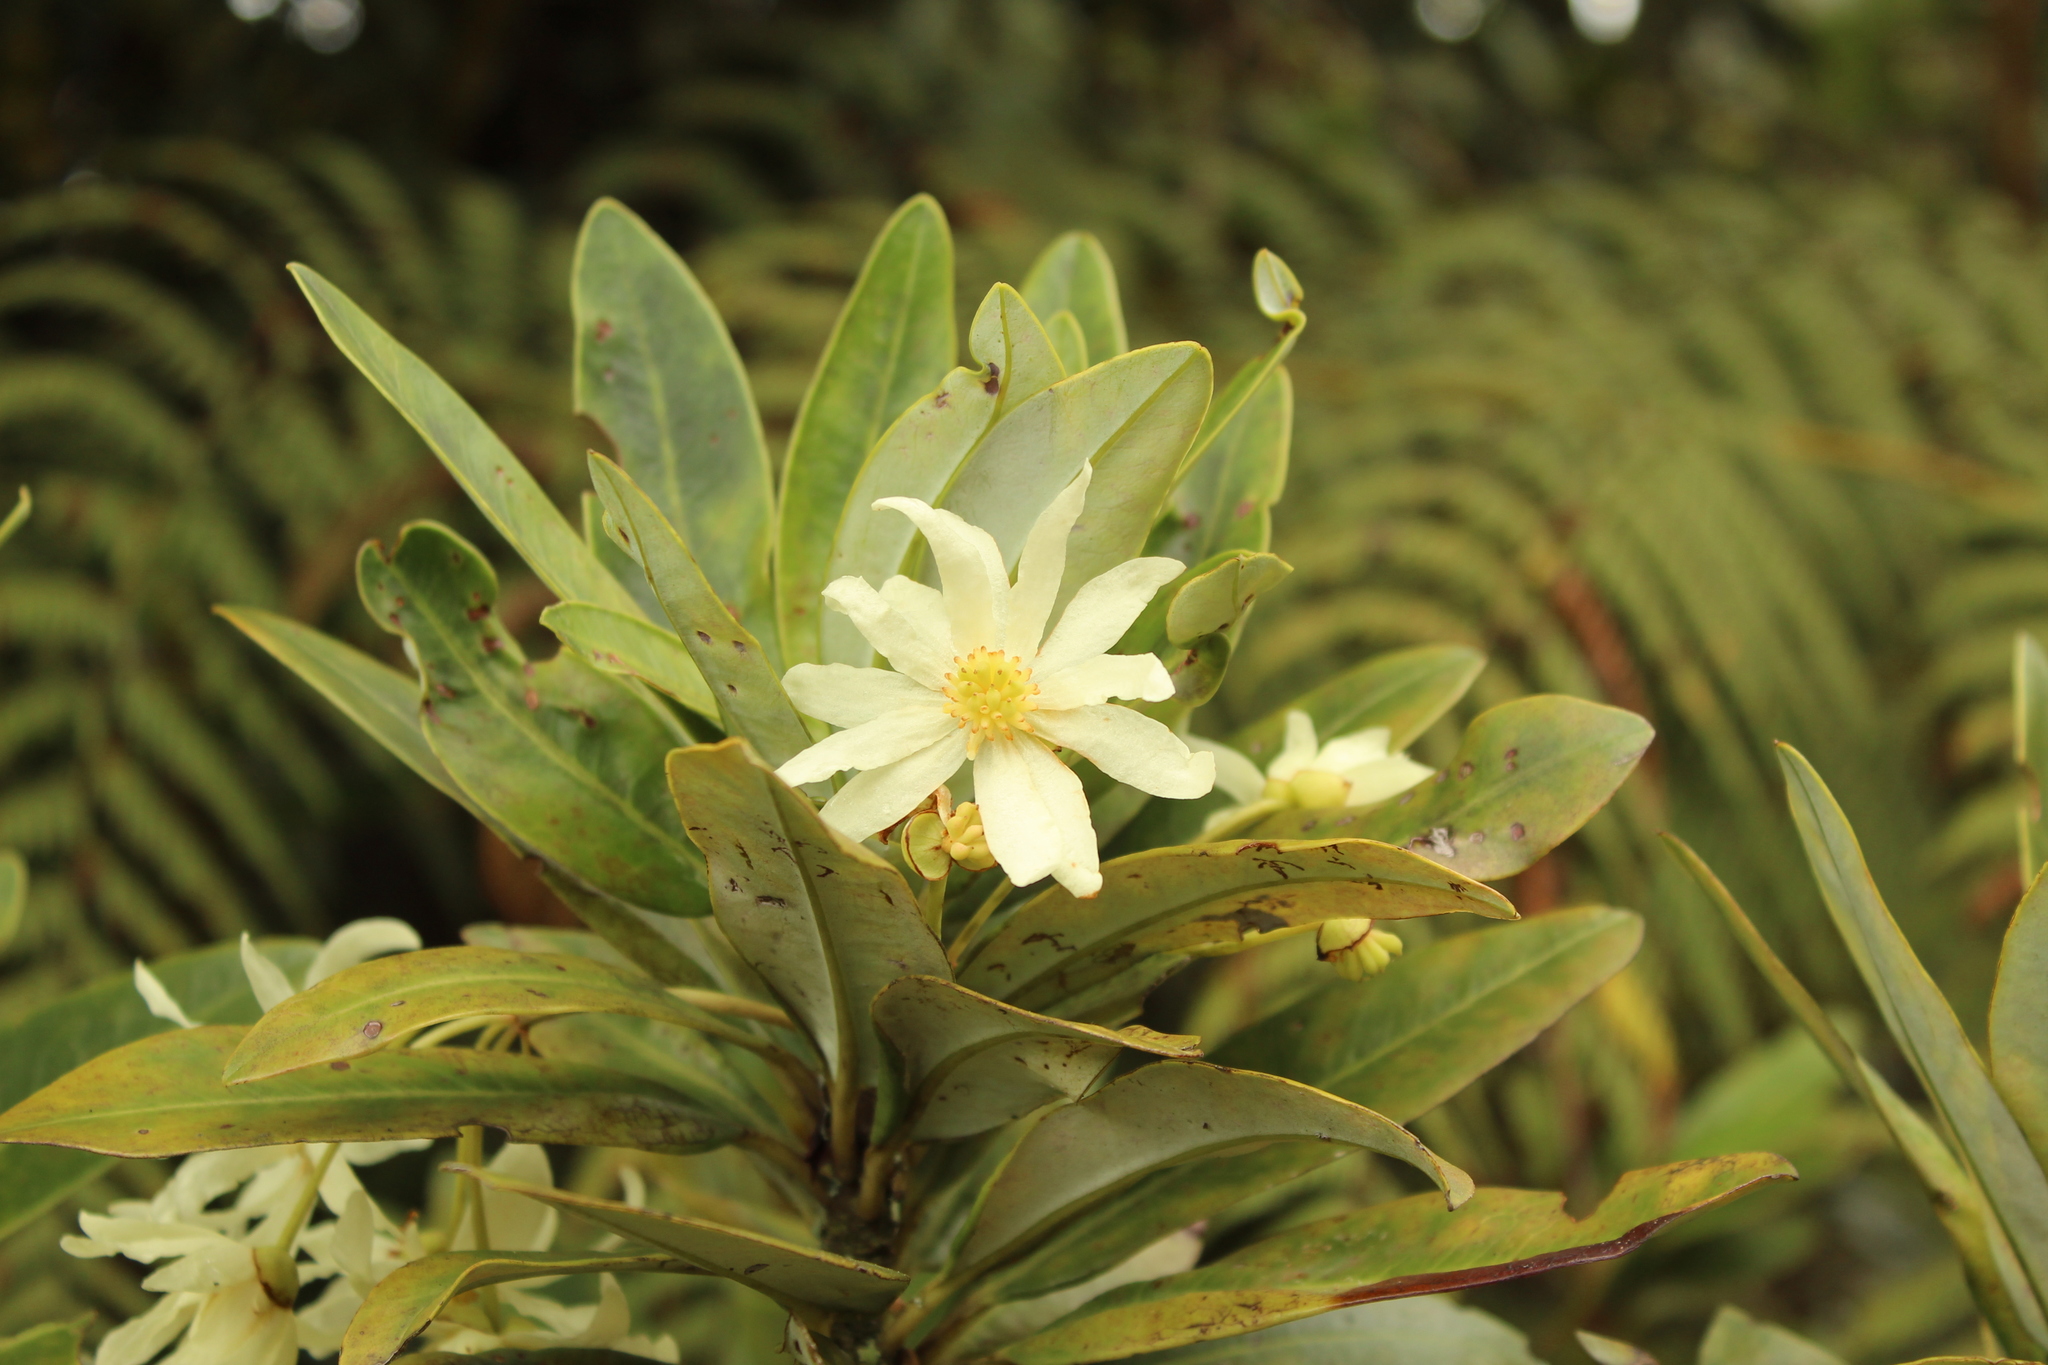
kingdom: Plantae
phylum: Tracheophyta
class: Magnoliopsida
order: Canellales
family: Winteraceae
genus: Drimys
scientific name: Drimys granadensis
